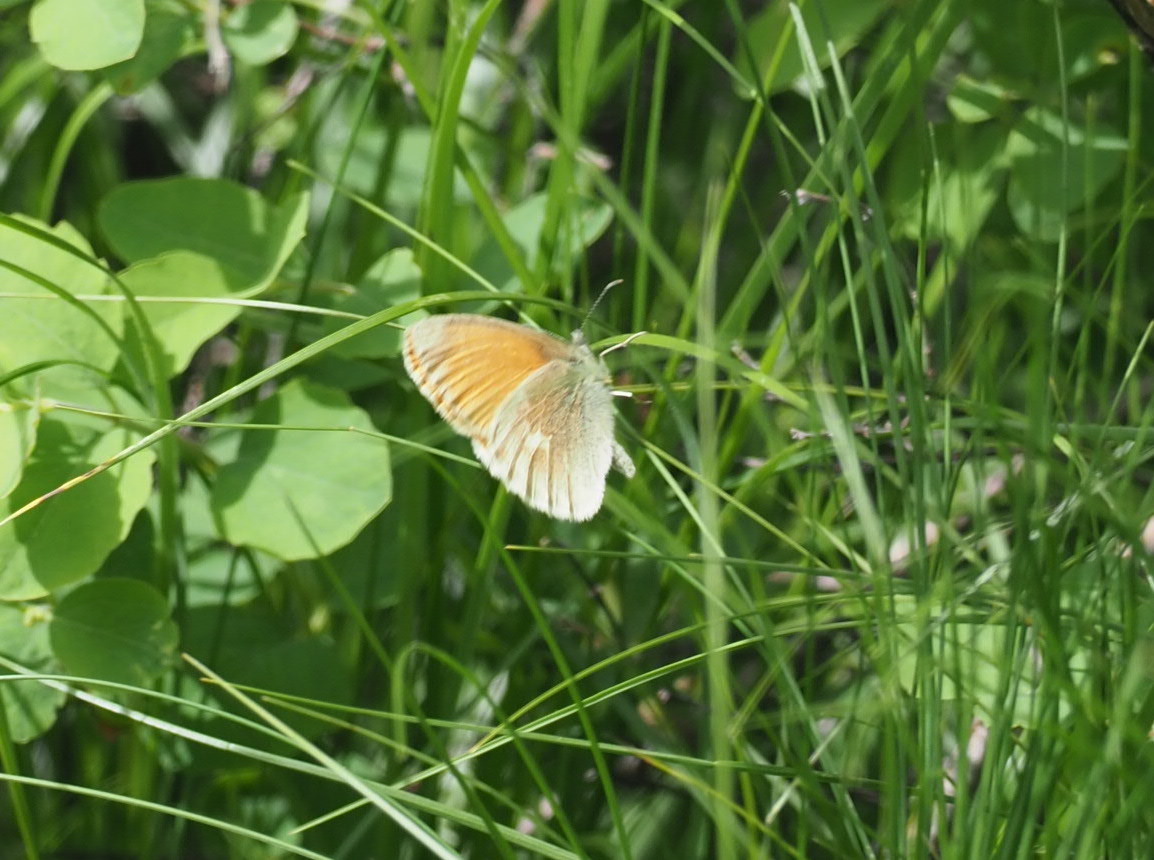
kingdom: Animalia
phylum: Arthropoda
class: Insecta
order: Lepidoptera
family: Nymphalidae
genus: Coenonympha
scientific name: Coenonympha california
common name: Common ringlet
